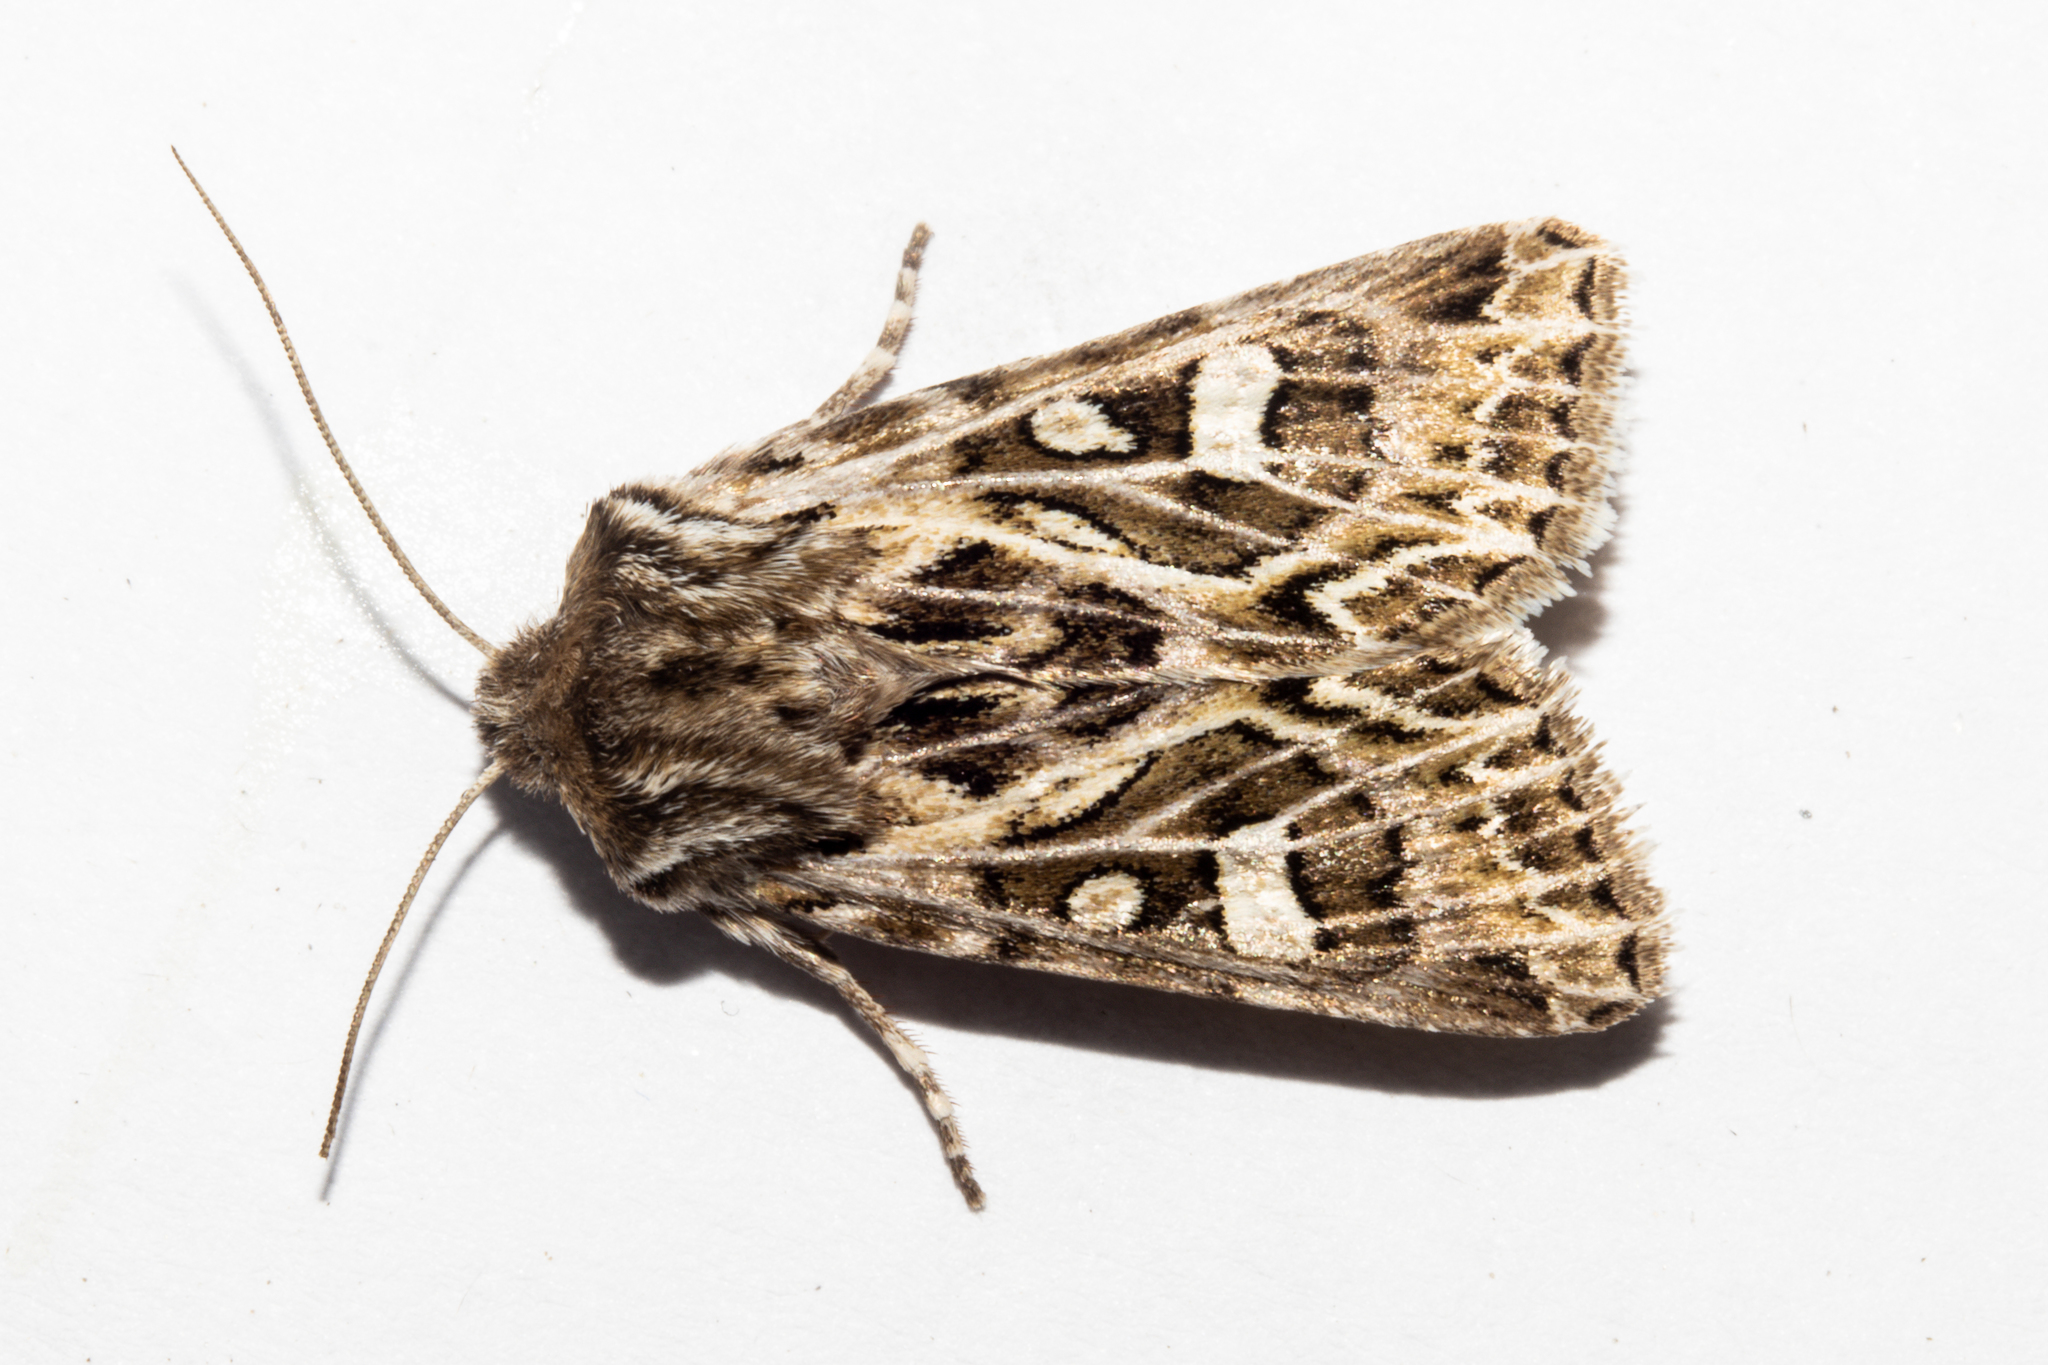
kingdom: Animalia
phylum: Arthropoda
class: Insecta
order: Lepidoptera
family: Noctuidae
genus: Ichneutica
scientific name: Ichneutica
